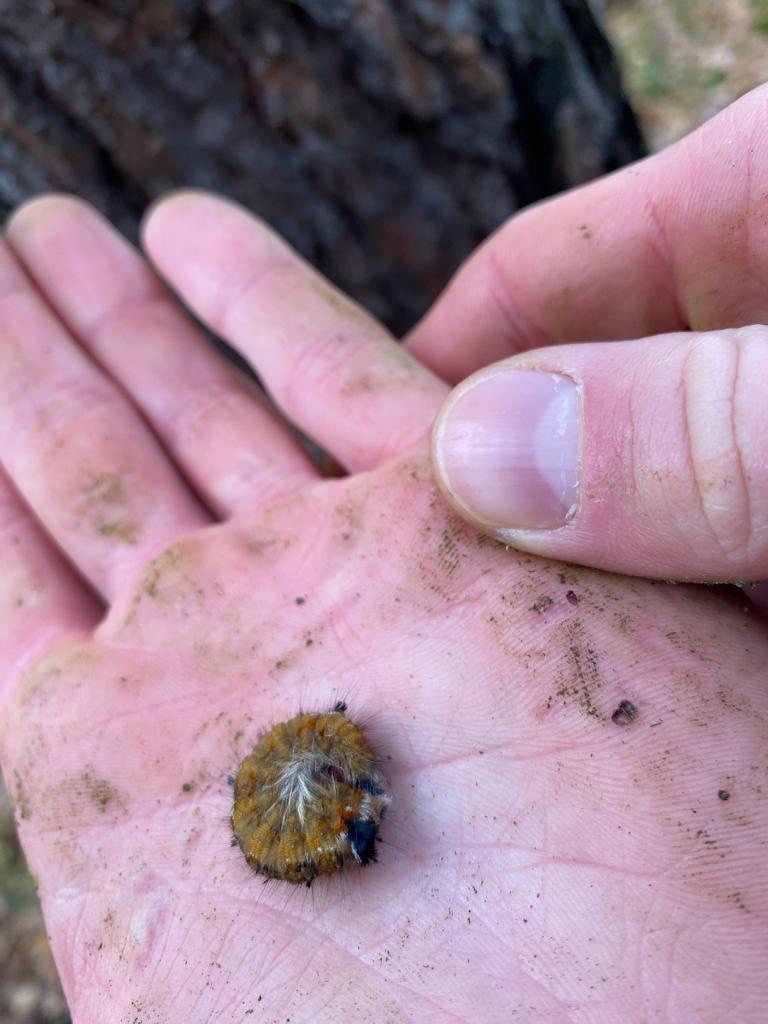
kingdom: Animalia
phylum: Arthropoda
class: Insecta
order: Lepidoptera
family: Lasiocampidae
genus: Dendrolimus
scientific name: Dendrolimus pini
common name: Pine-tree lappet
